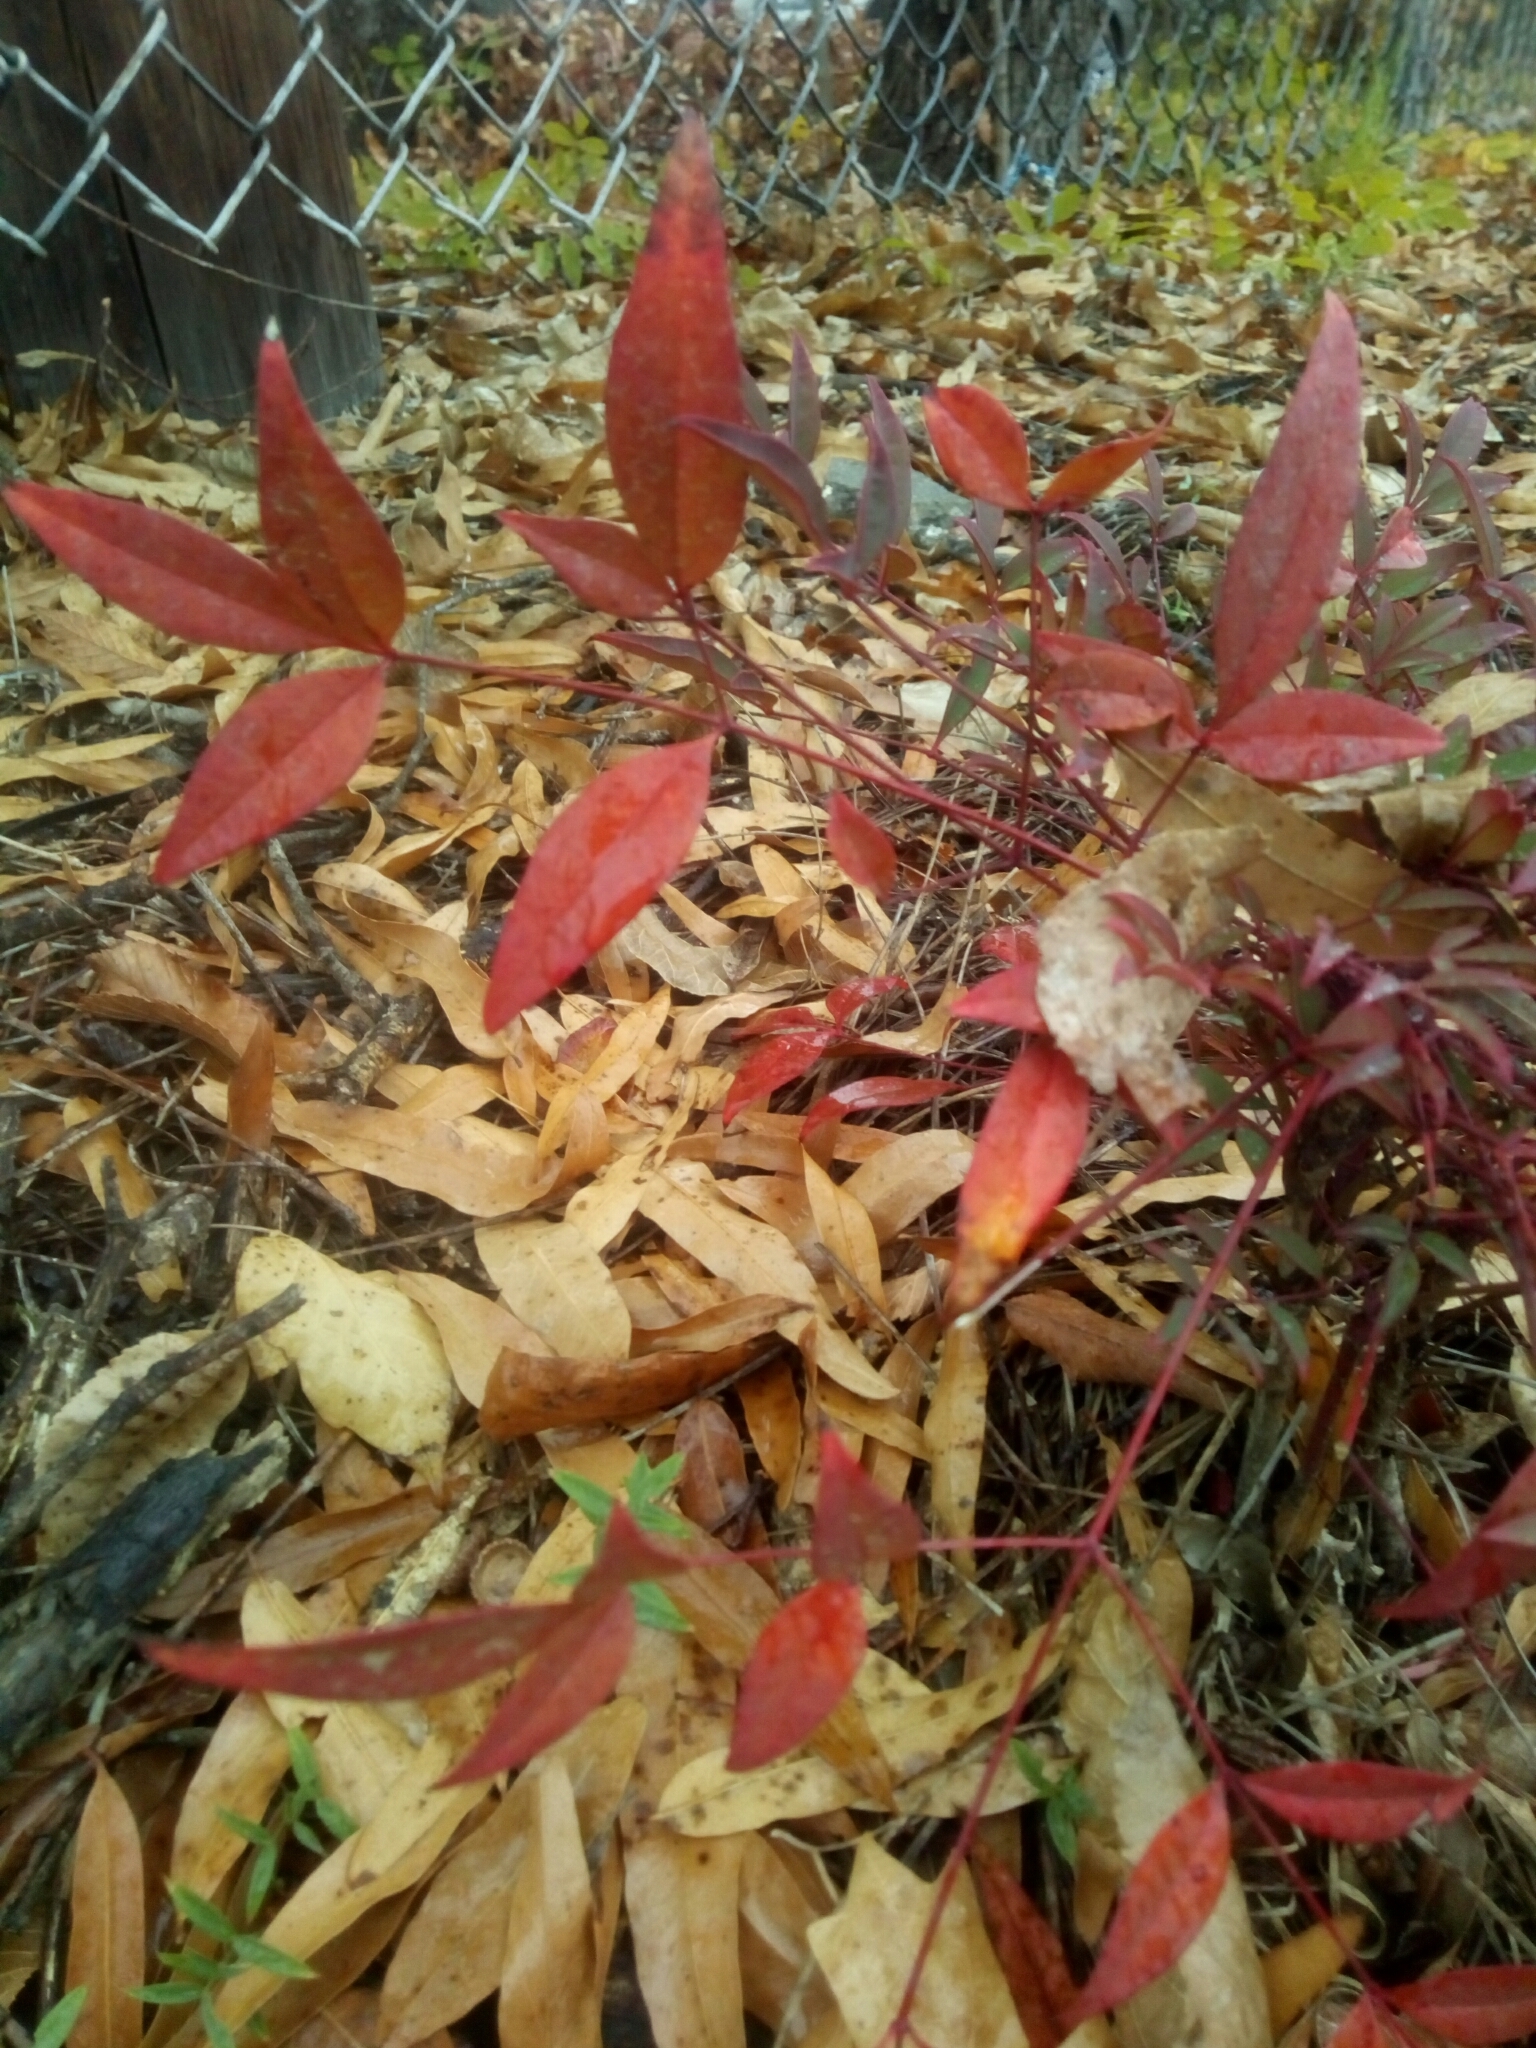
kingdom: Plantae
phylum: Tracheophyta
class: Magnoliopsida
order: Ranunculales
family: Berberidaceae
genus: Nandina
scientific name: Nandina domestica
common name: Sacred bamboo
